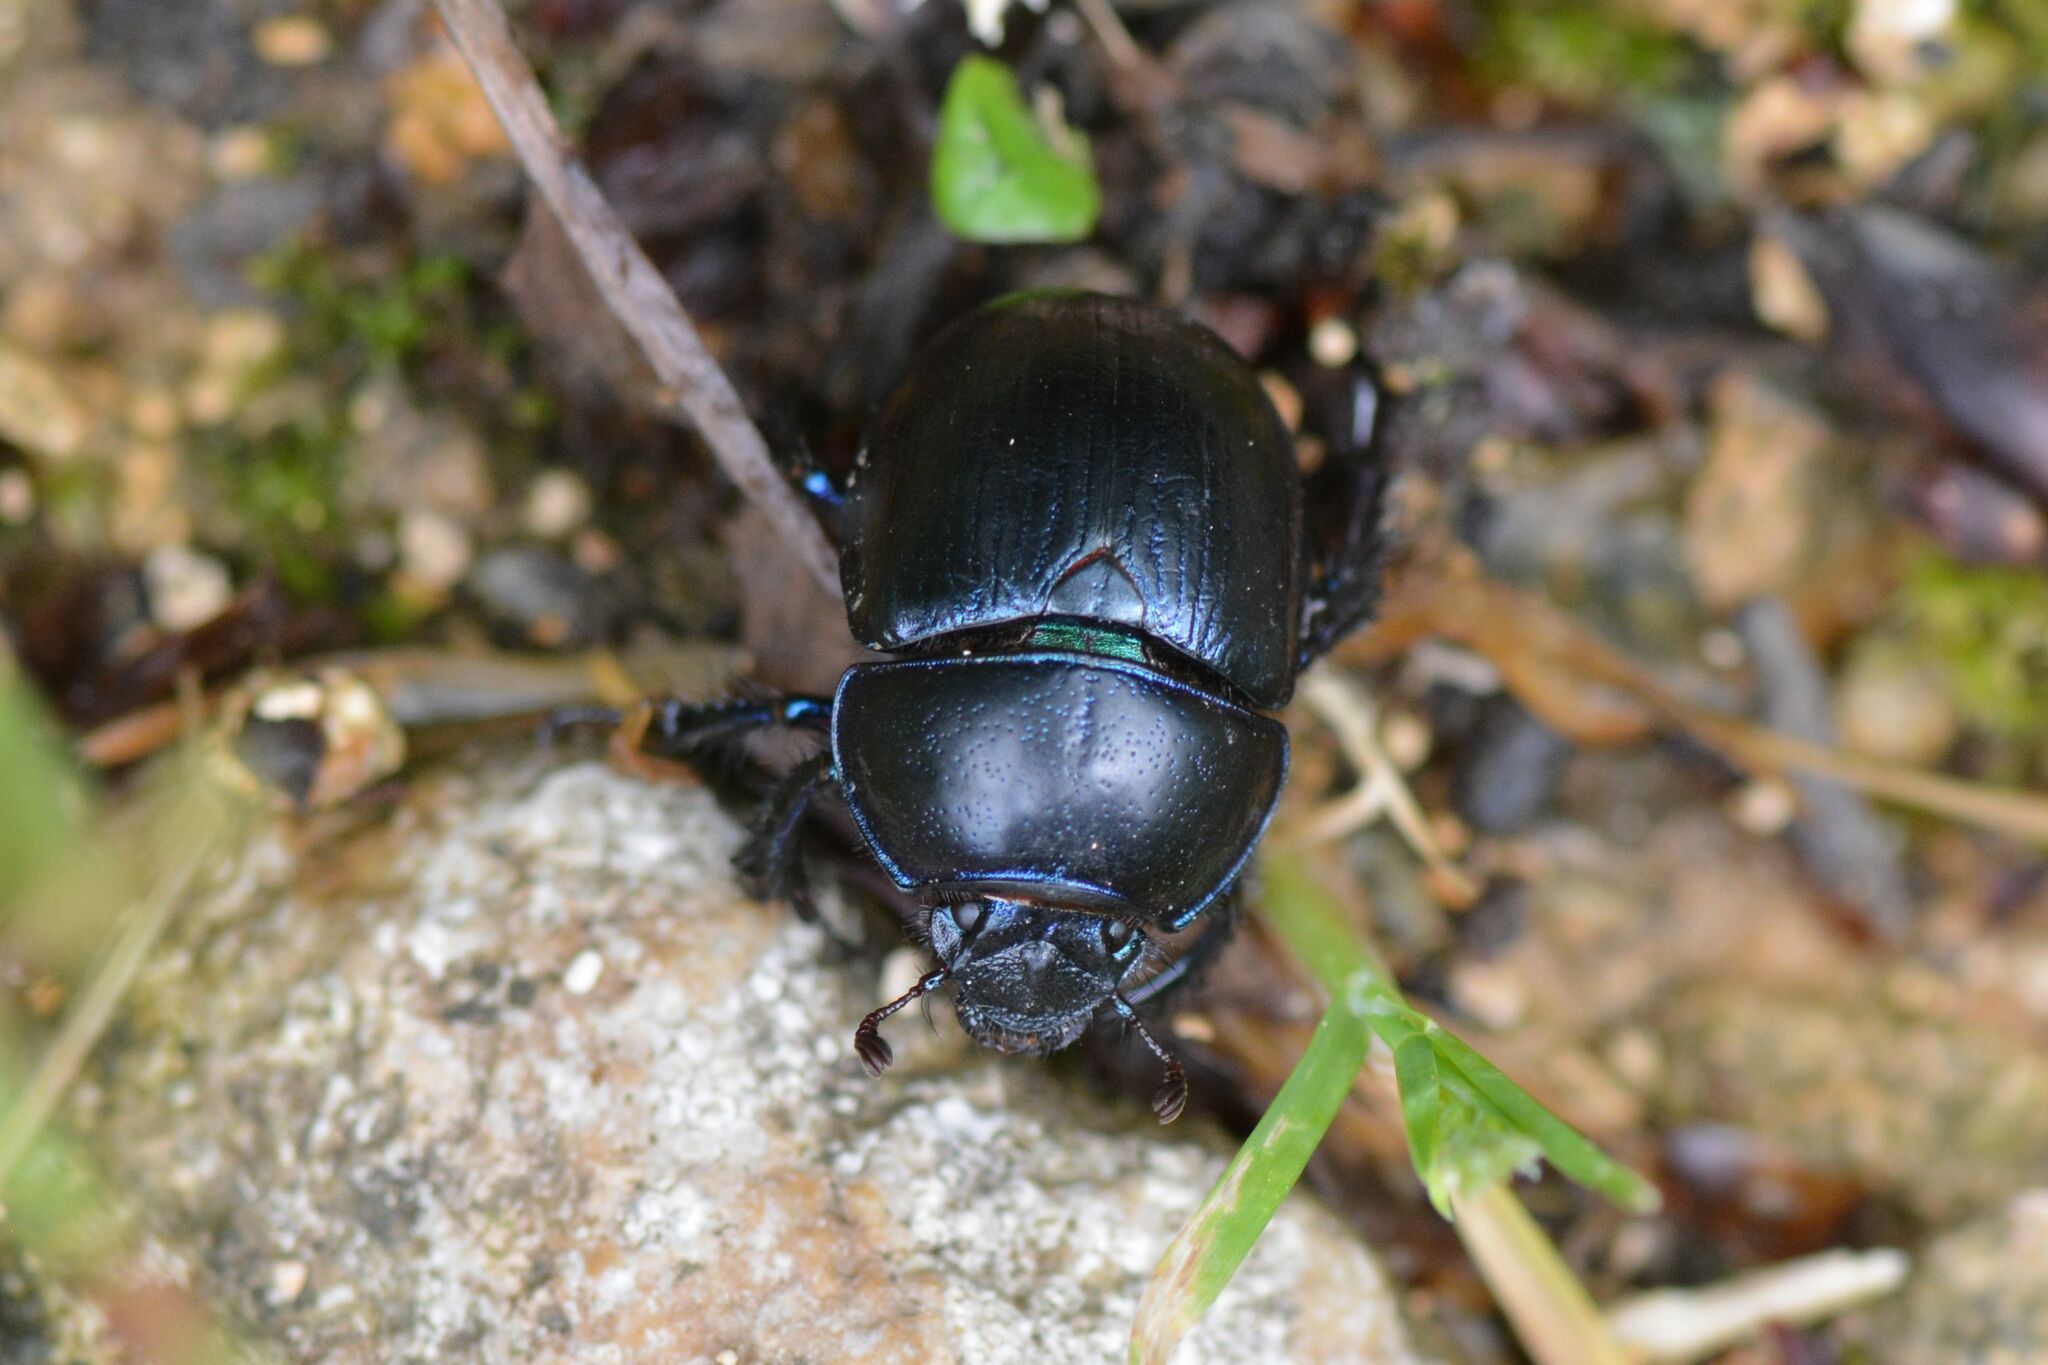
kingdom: Animalia
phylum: Arthropoda
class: Insecta
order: Coleoptera
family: Geotrupidae
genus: Anoplotrupes
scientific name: Anoplotrupes stercorosus
